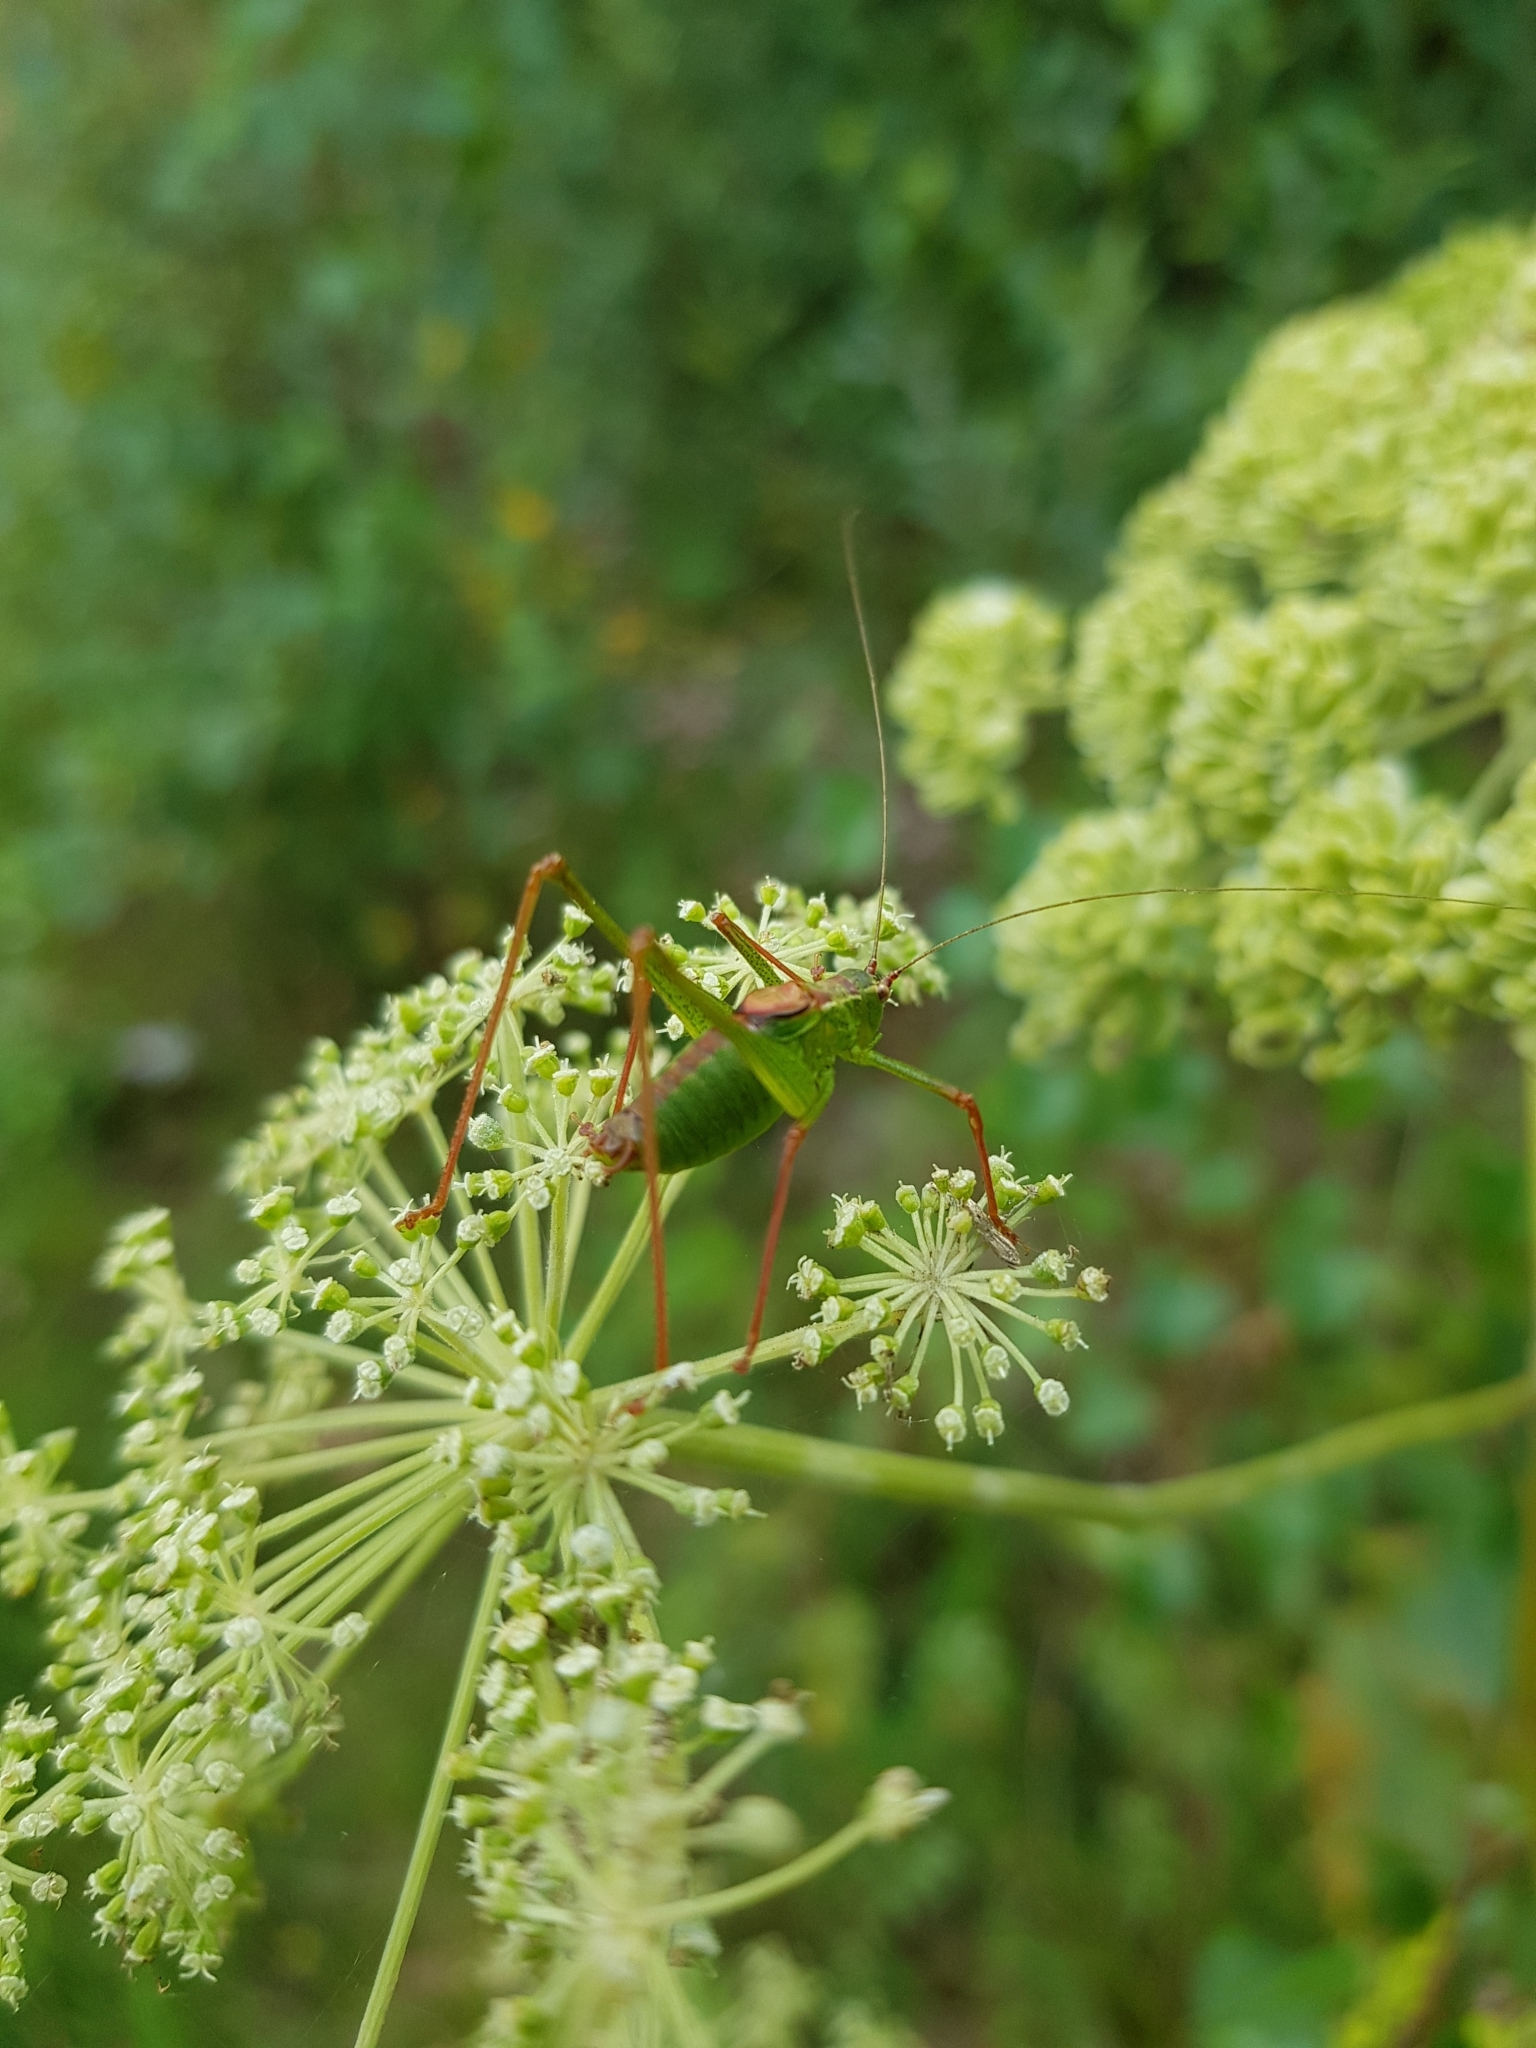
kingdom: Animalia
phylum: Arthropoda
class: Insecta
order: Orthoptera
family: Tettigoniidae
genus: Leptophyes
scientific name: Leptophyes punctatissima
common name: Speckled bush-cricket
